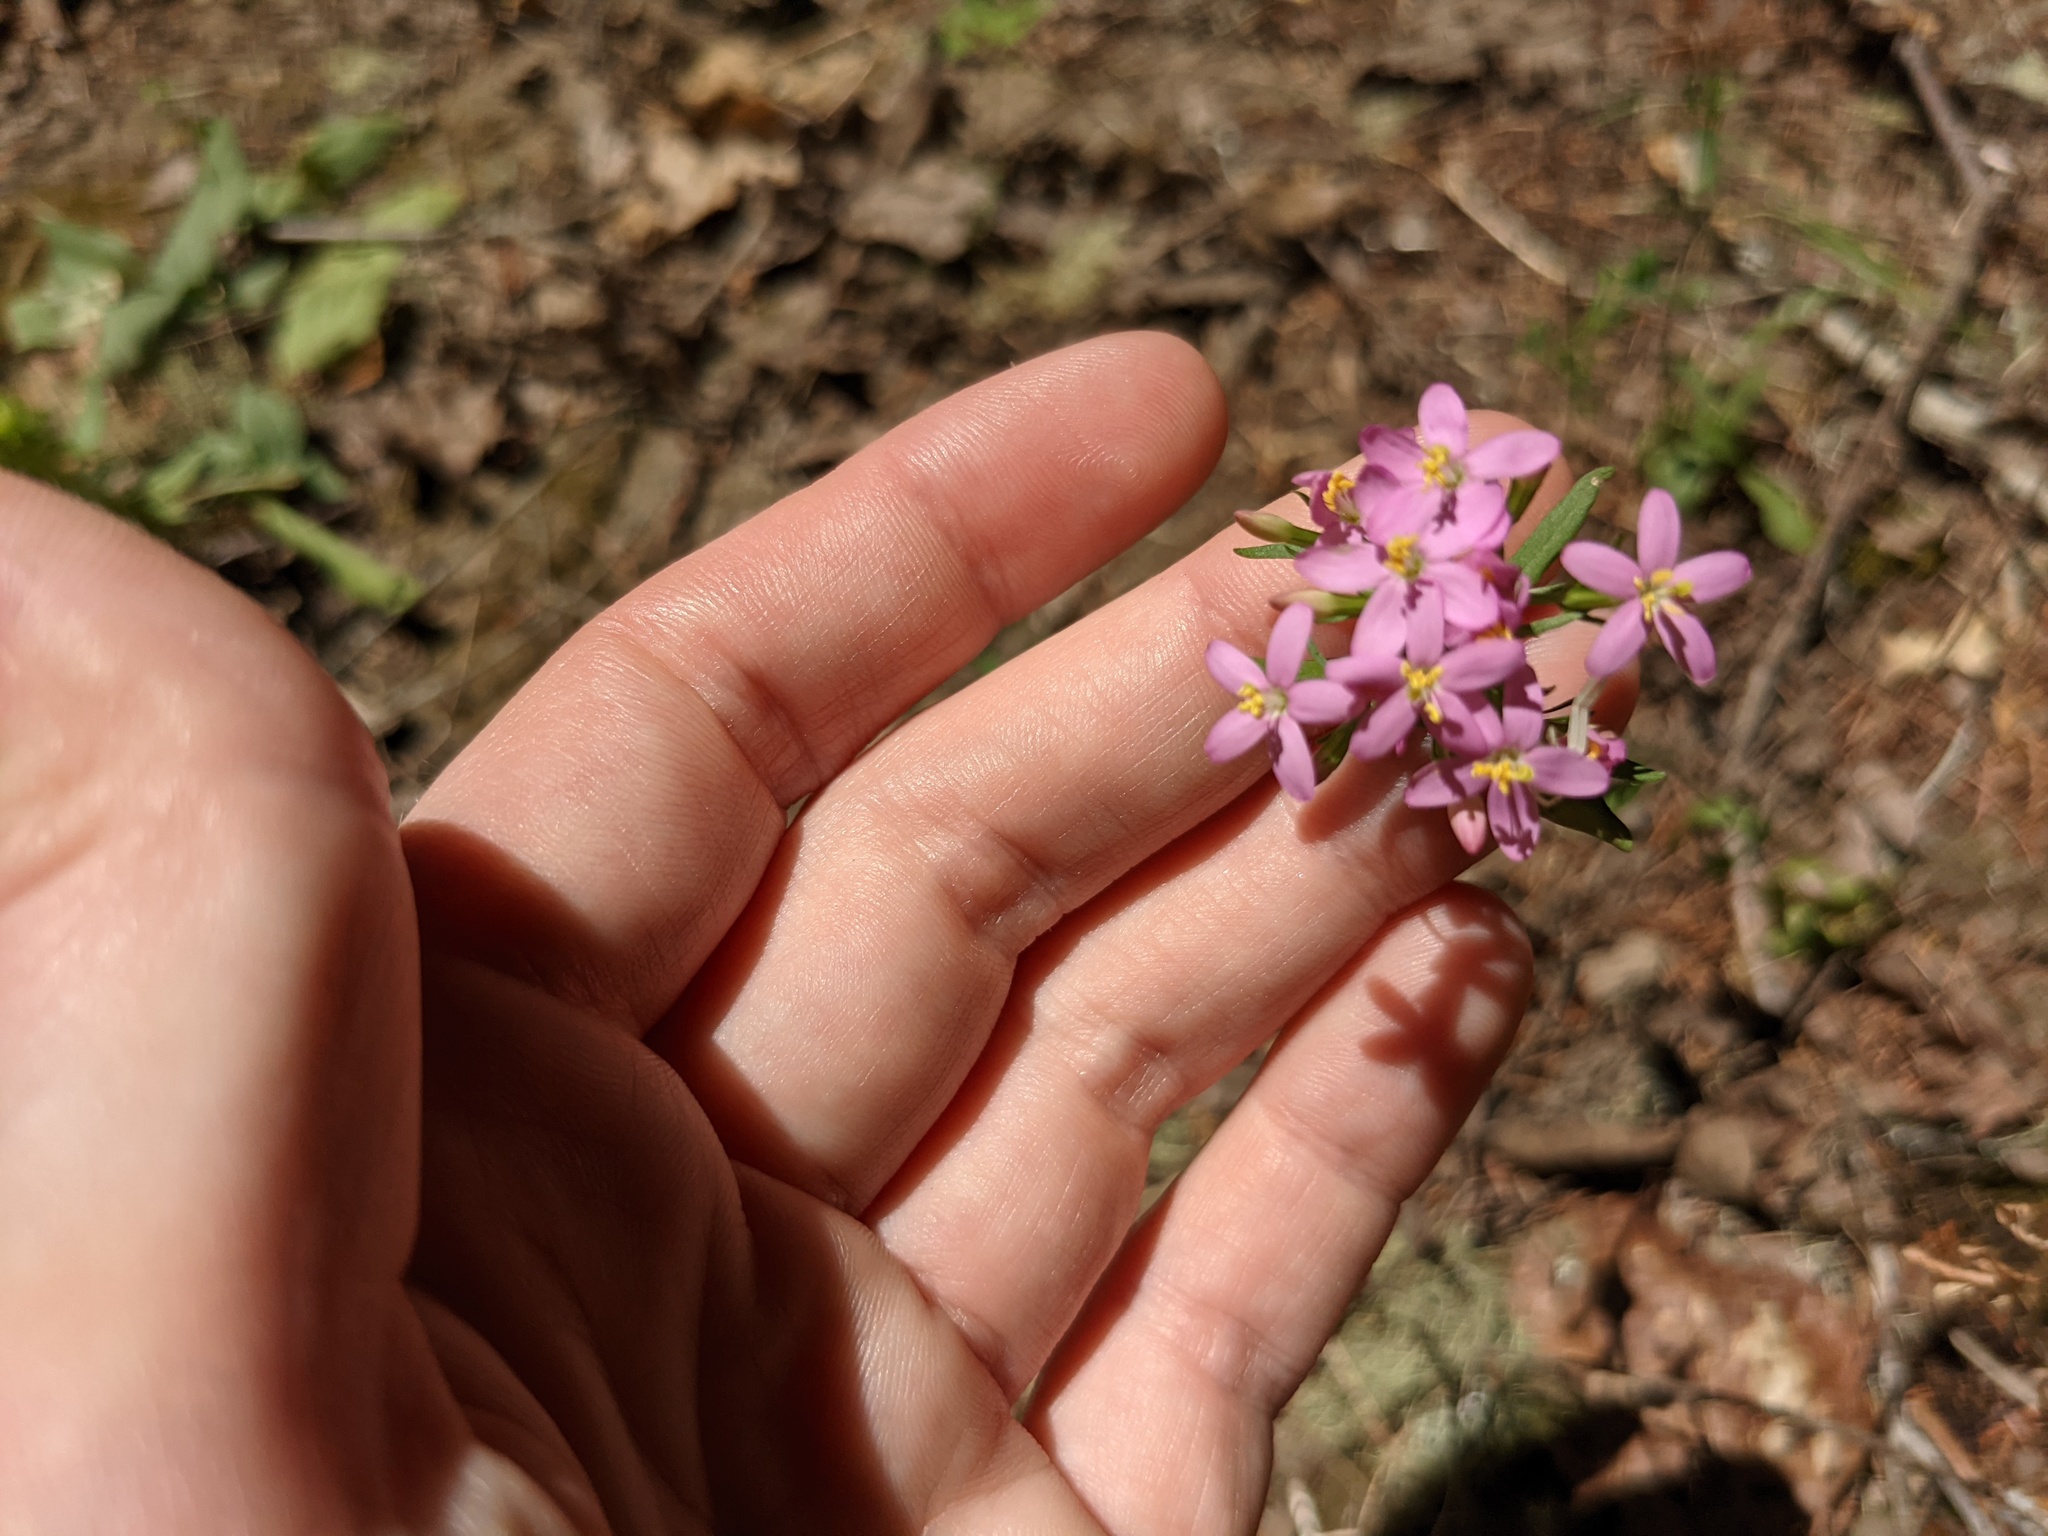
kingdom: Plantae
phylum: Tracheophyta
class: Magnoliopsida
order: Gentianales
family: Gentianaceae
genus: Centaurium
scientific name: Centaurium erythraea
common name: Common centaury
